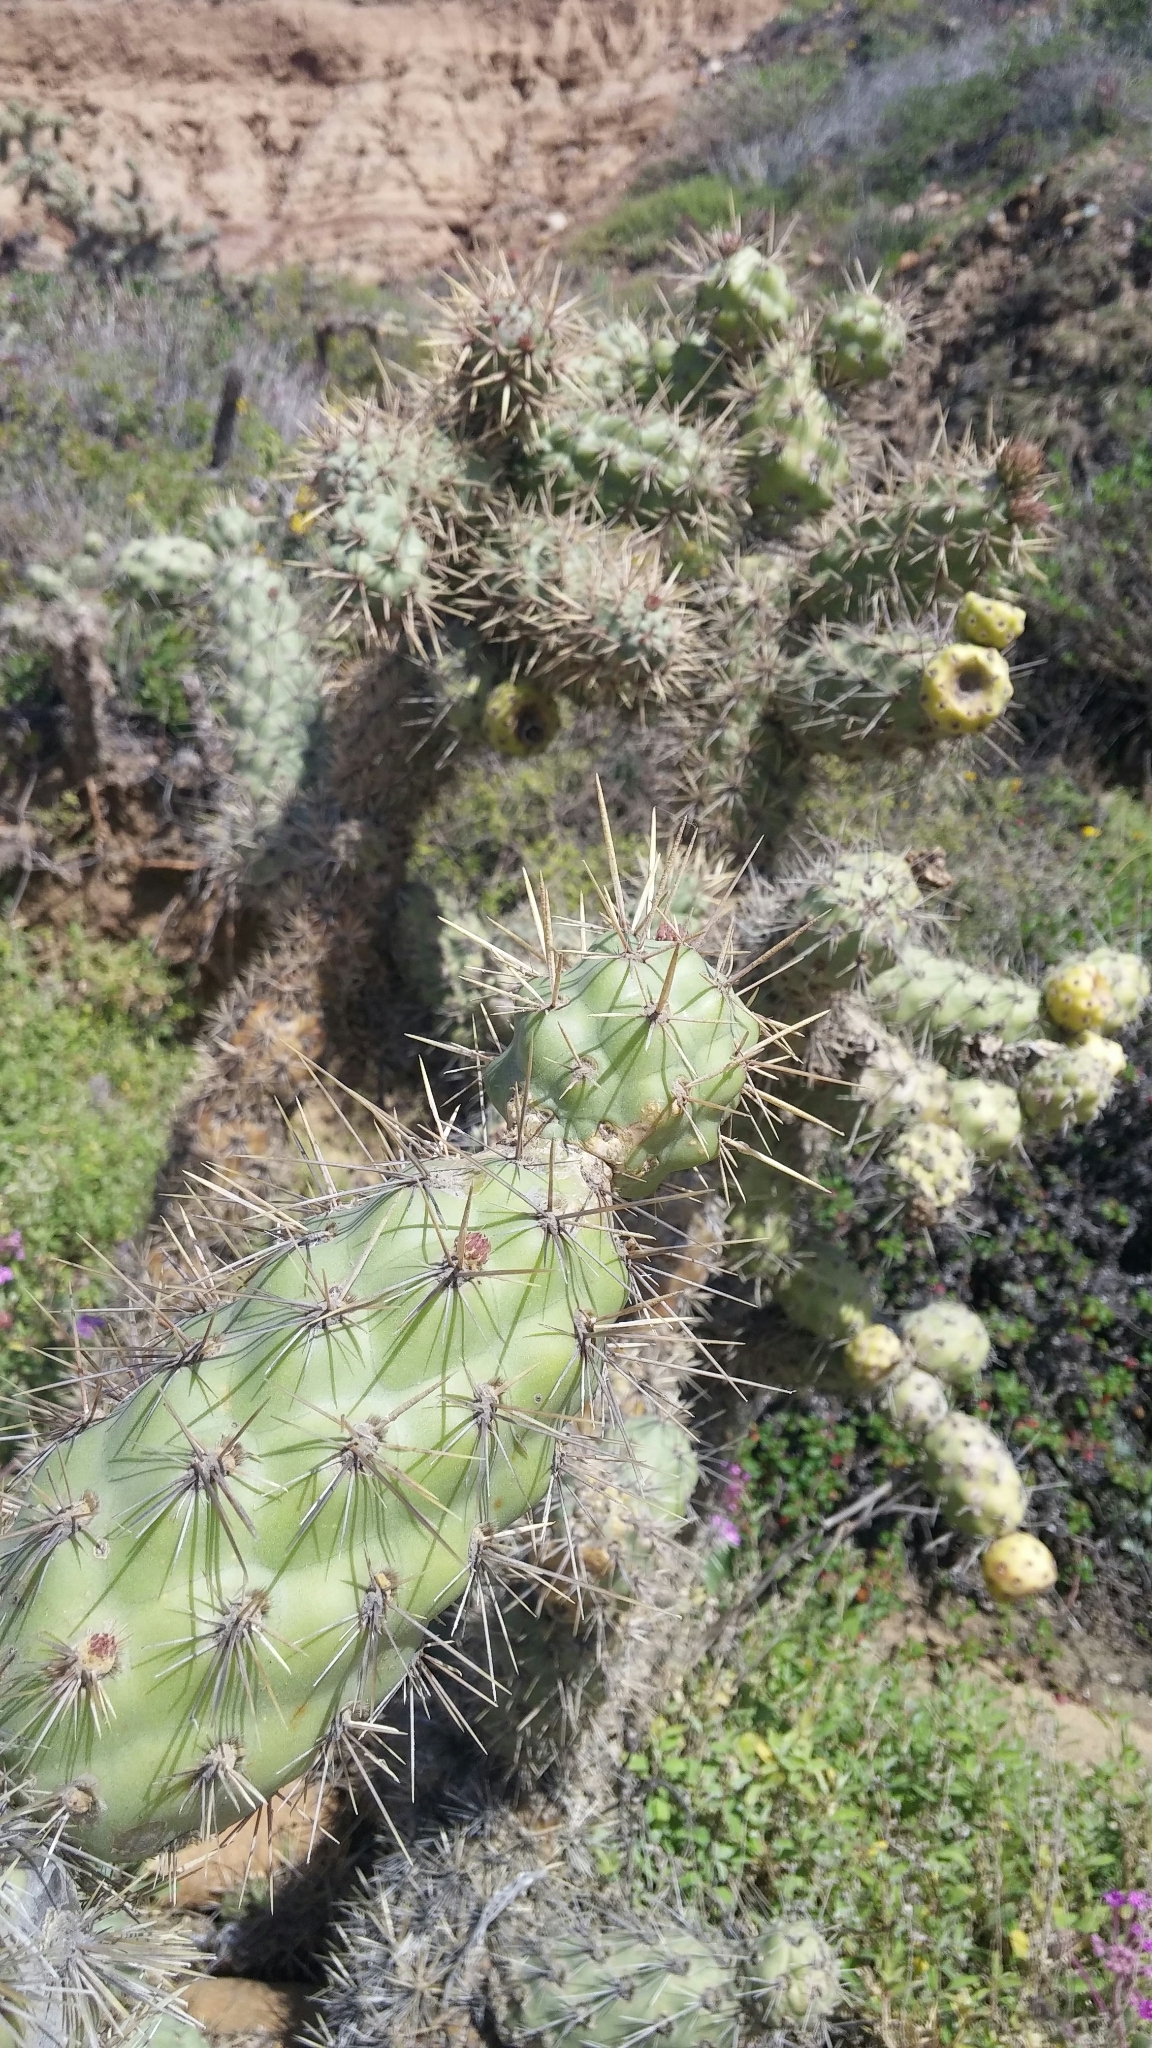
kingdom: Plantae
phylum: Tracheophyta
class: Magnoliopsida
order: Caryophyllales
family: Cactaceae
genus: Cylindropuntia
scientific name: Cylindropuntia prolifera
